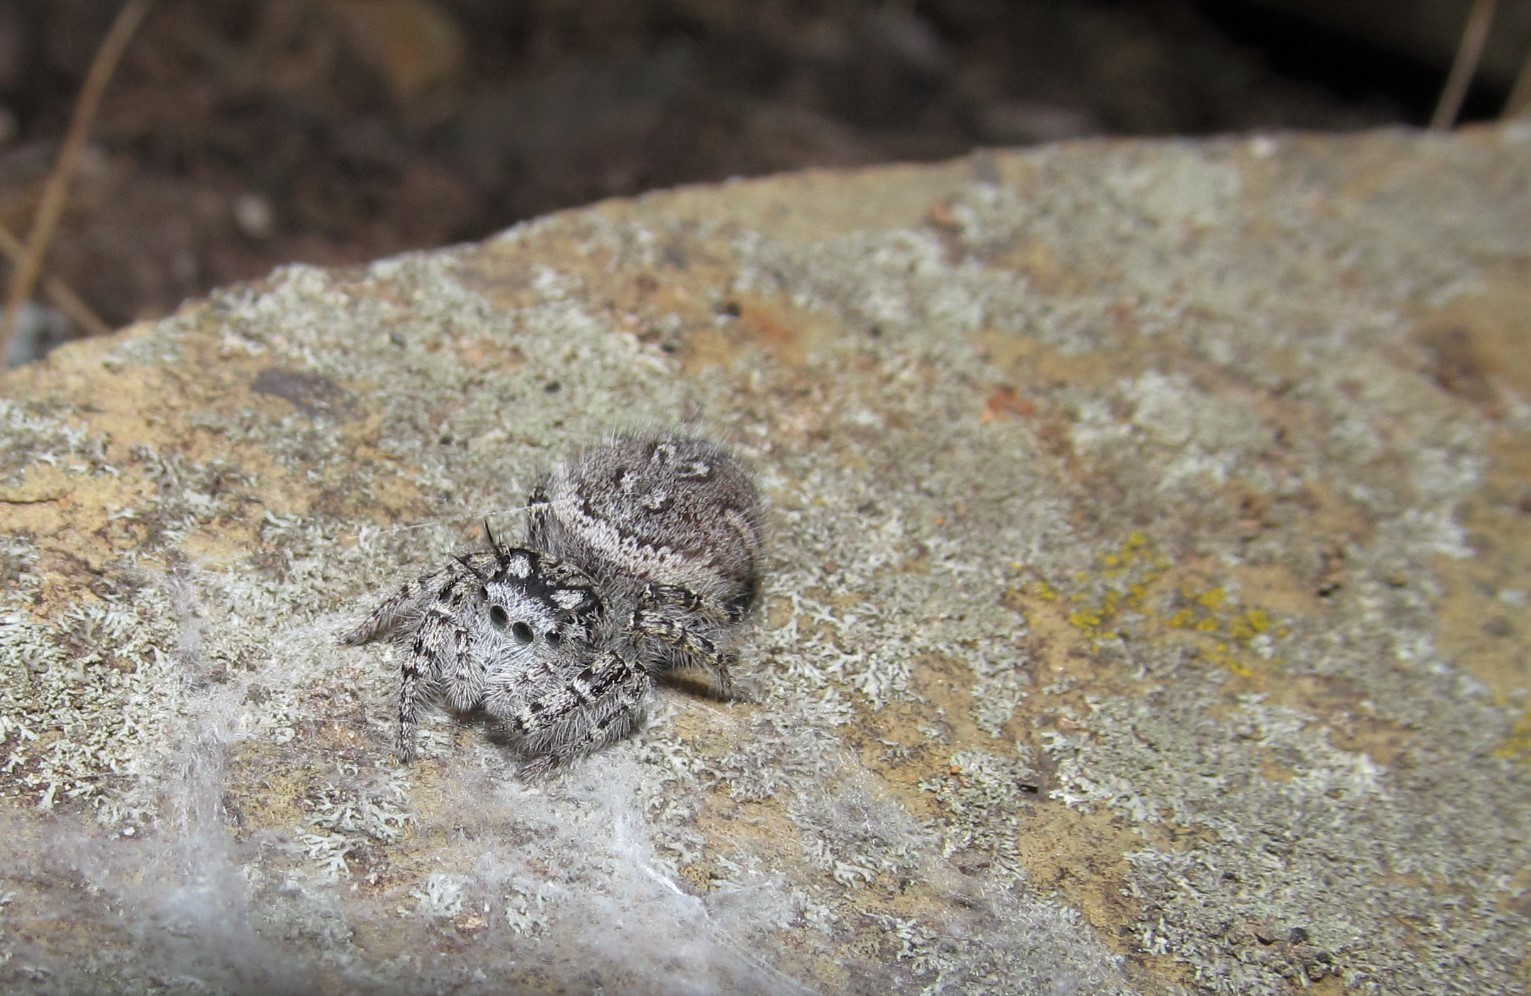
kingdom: Animalia
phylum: Arthropoda
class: Arachnida
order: Araneae
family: Salticidae
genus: Phidippus
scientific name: Phidippus mystaceus
